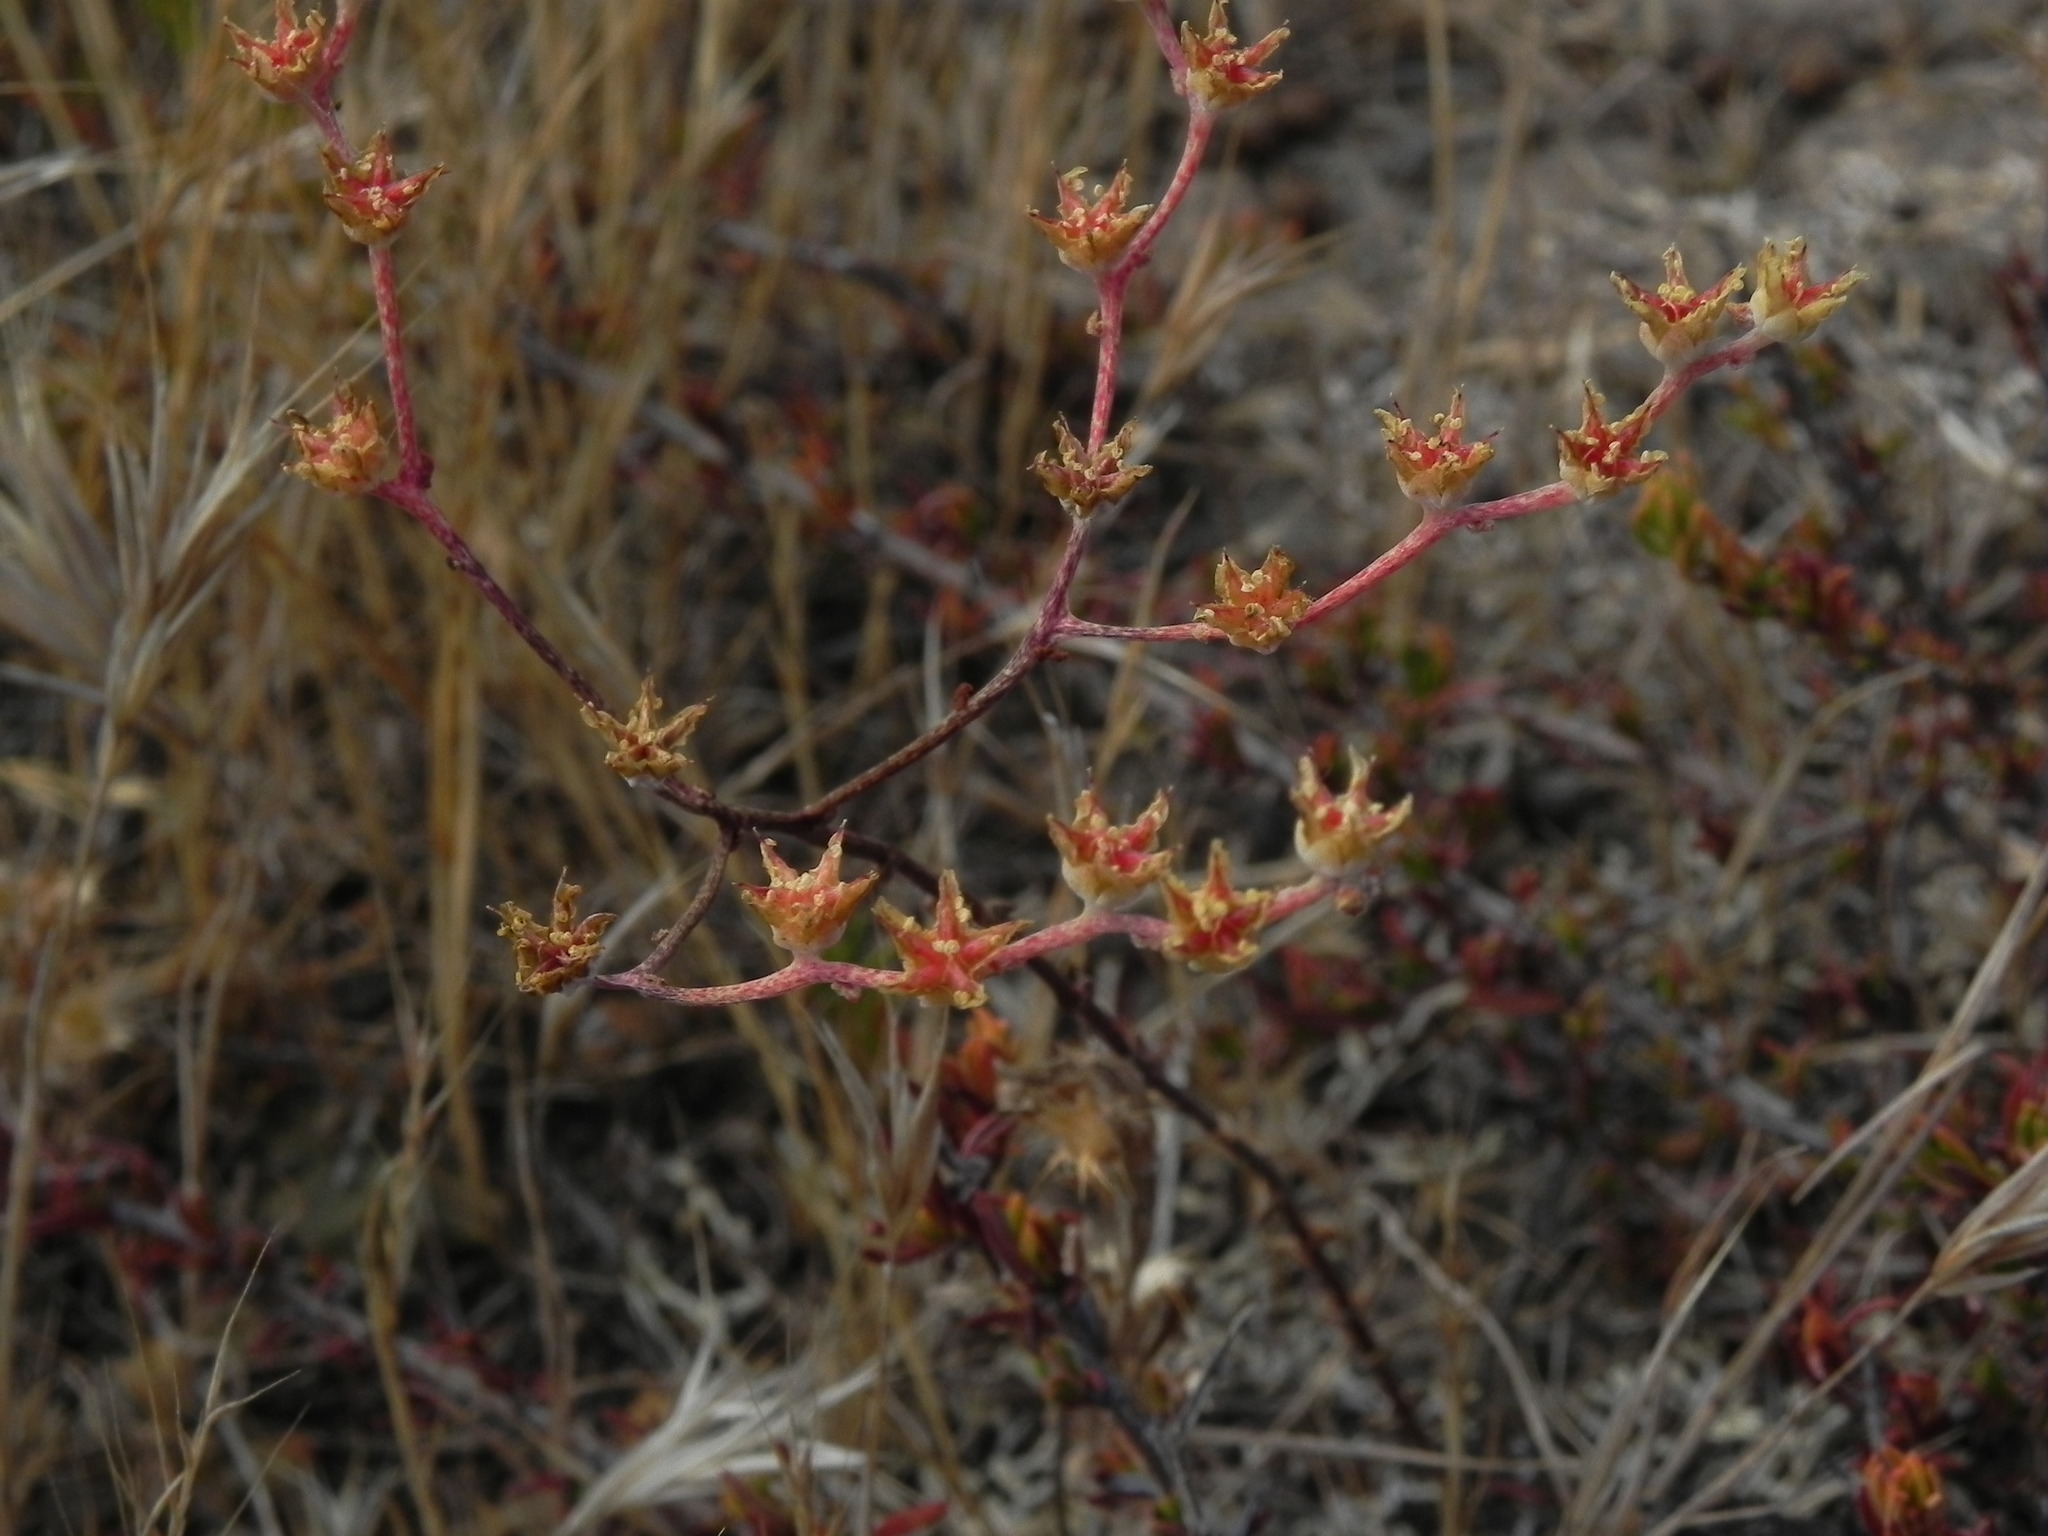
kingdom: Plantae
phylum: Tracheophyta
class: Magnoliopsida
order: Saxifragales
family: Crassulaceae
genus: Dudleya
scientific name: Dudleya variegata
